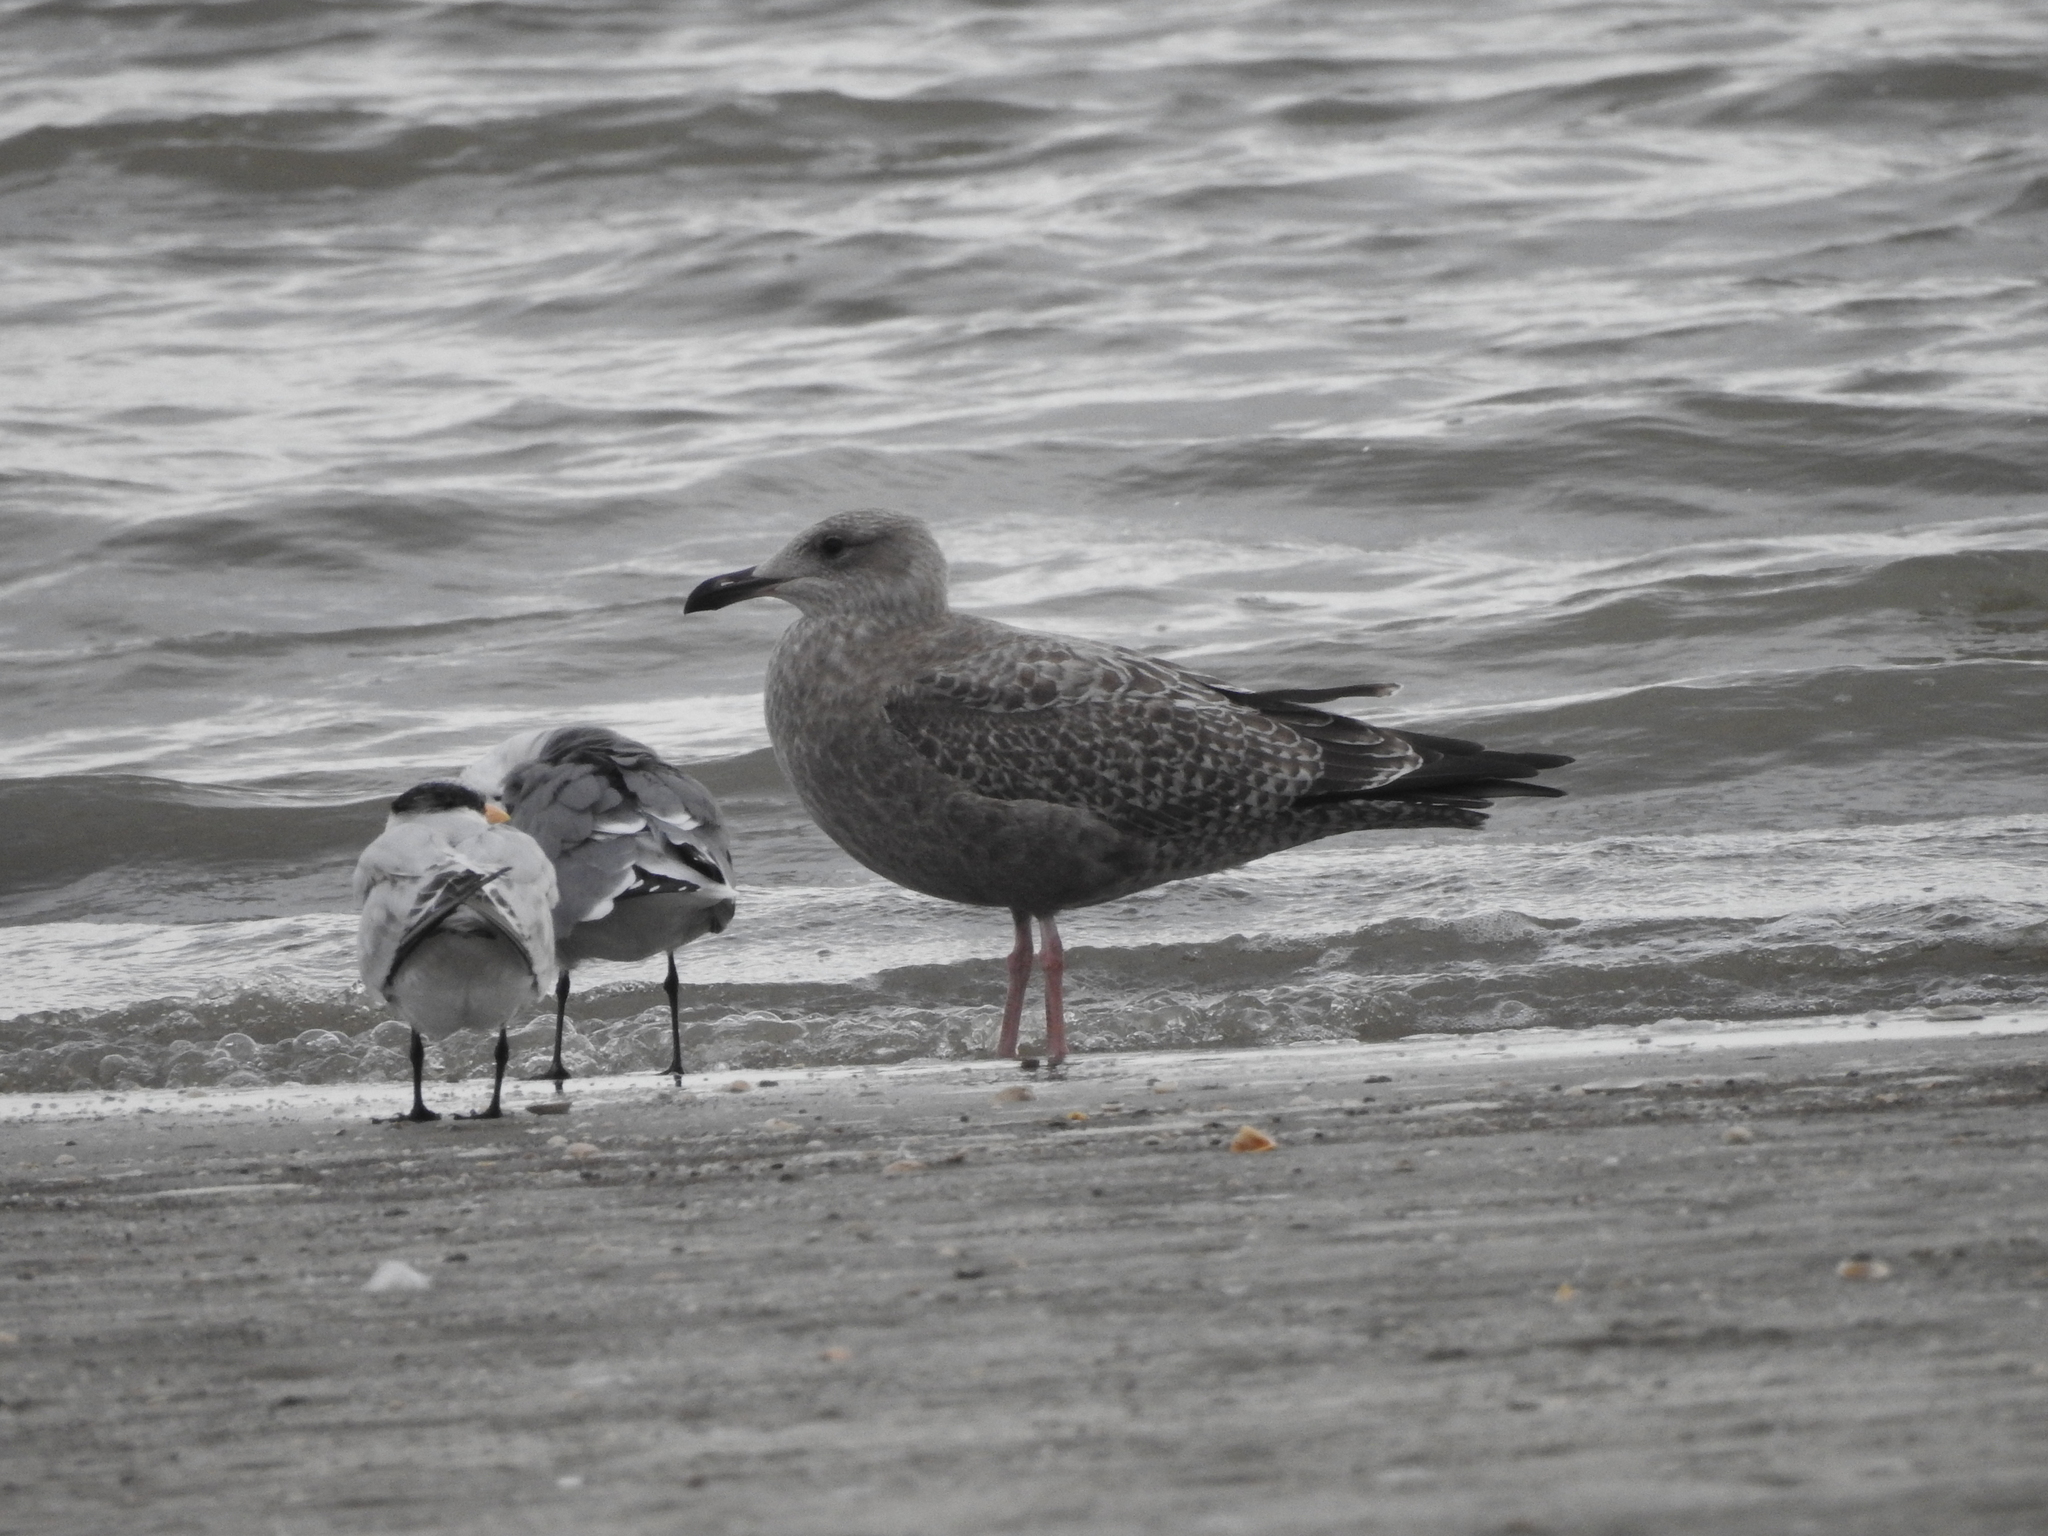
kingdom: Animalia
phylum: Chordata
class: Aves
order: Charadriiformes
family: Laridae
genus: Larus
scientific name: Larus argentatus
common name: Herring gull
